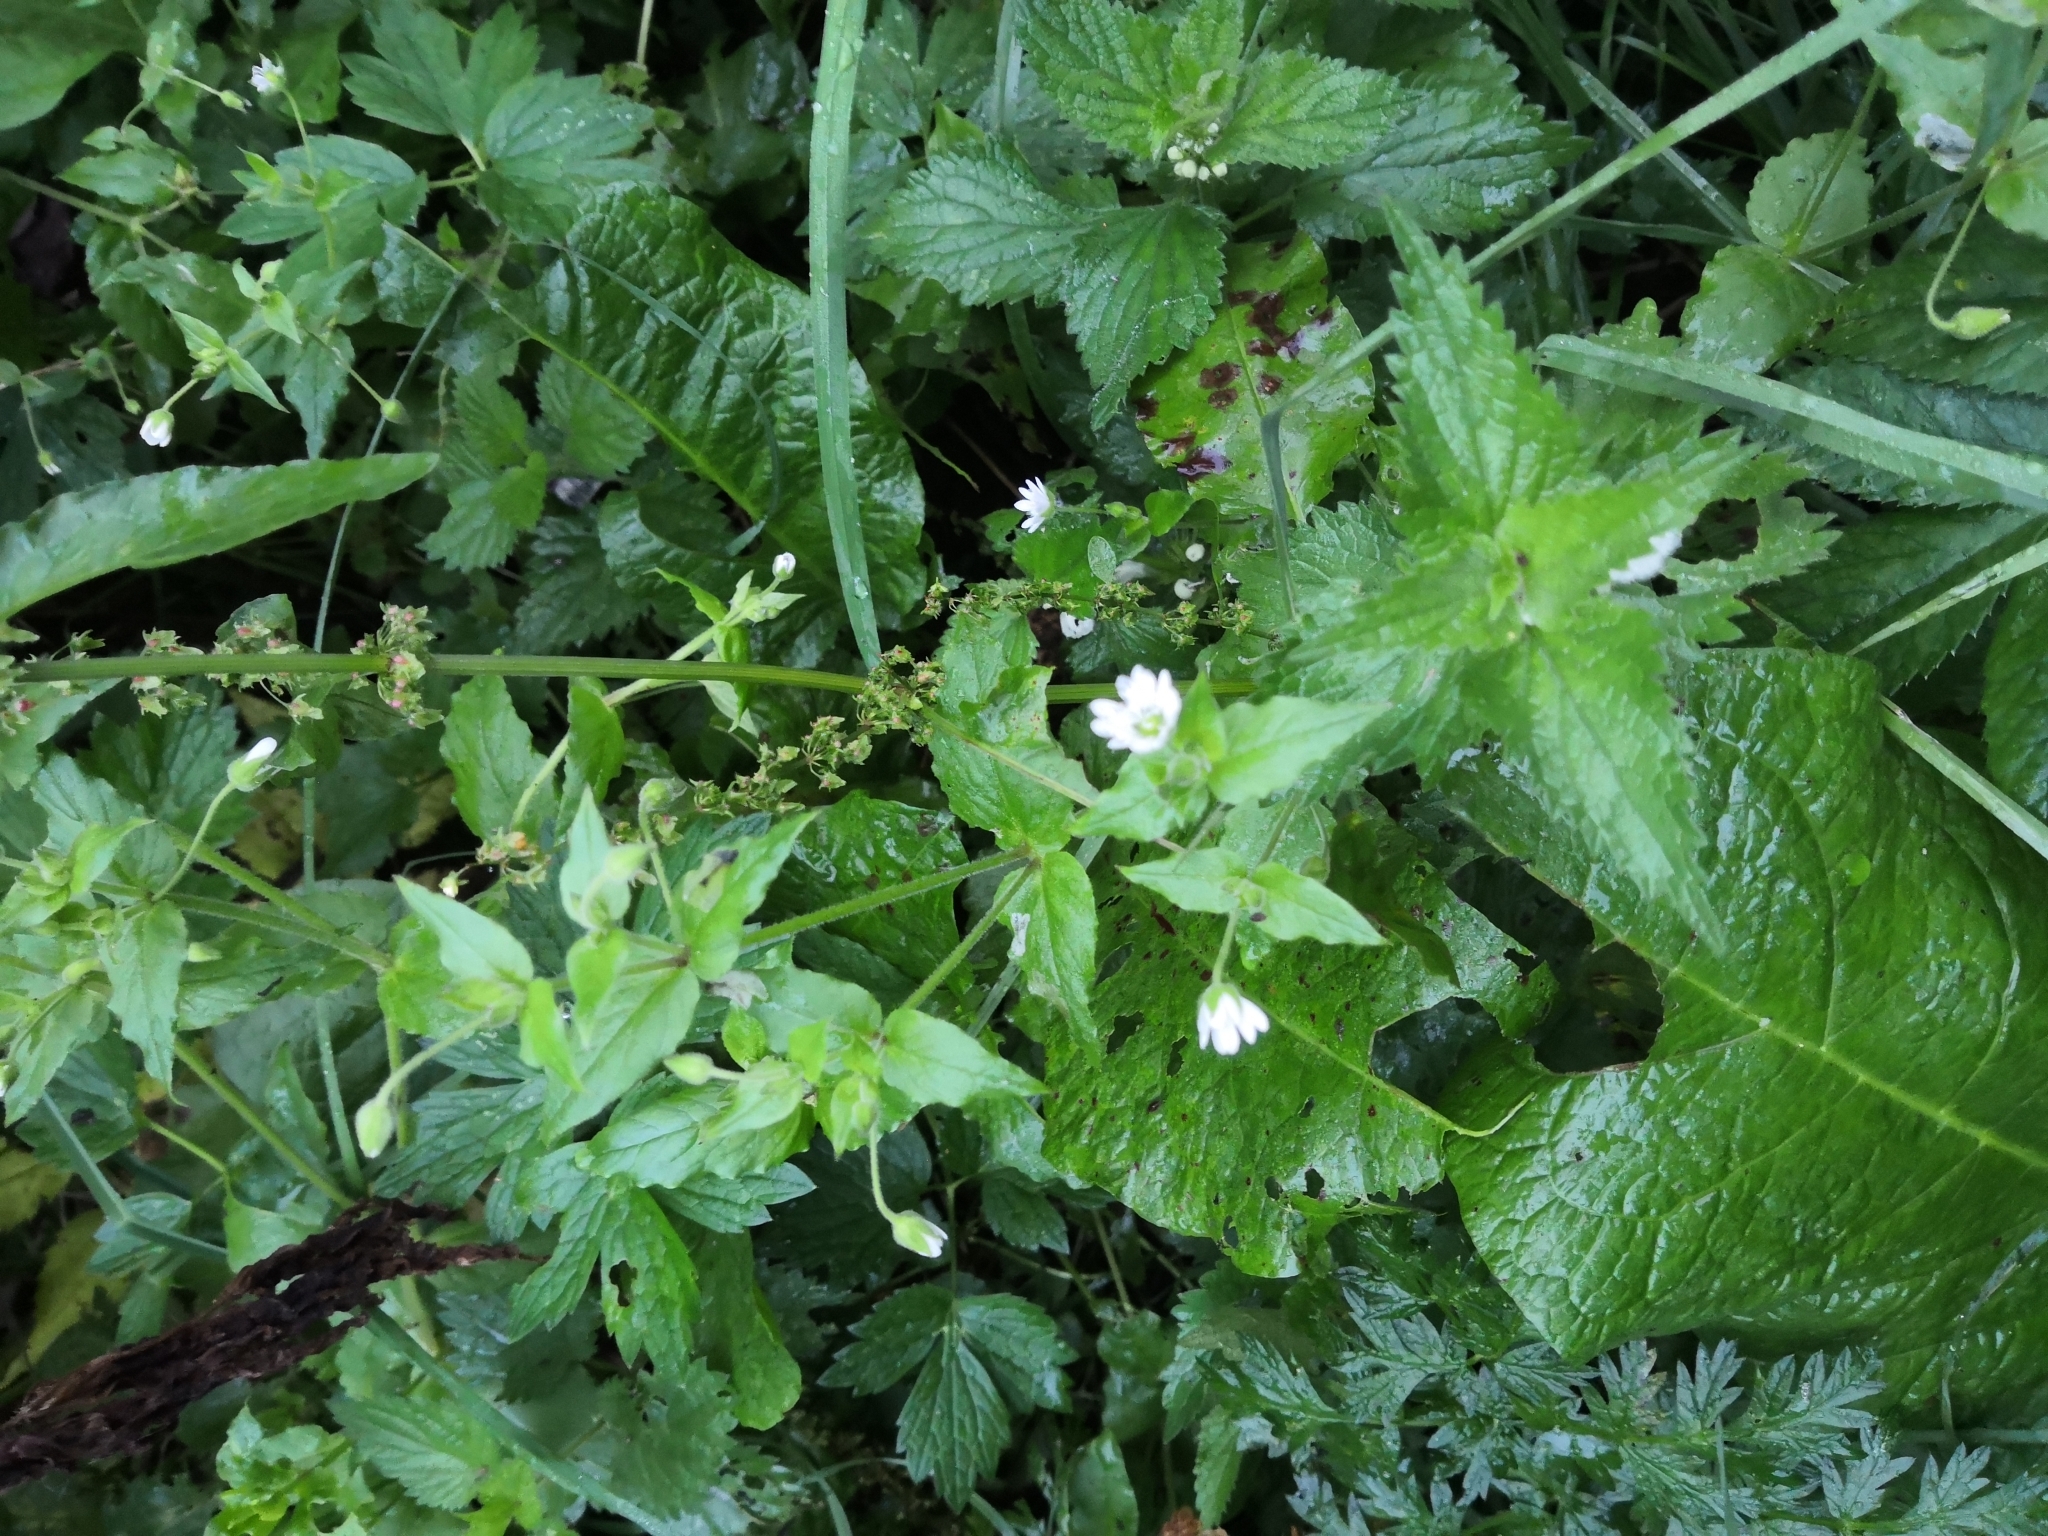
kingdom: Plantae
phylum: Tracheophyta
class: Magnoliopsida
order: Caryophyllales
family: Caryophyllaceae
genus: Stellaria
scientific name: Stellaria aquatica
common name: Water chickweed
